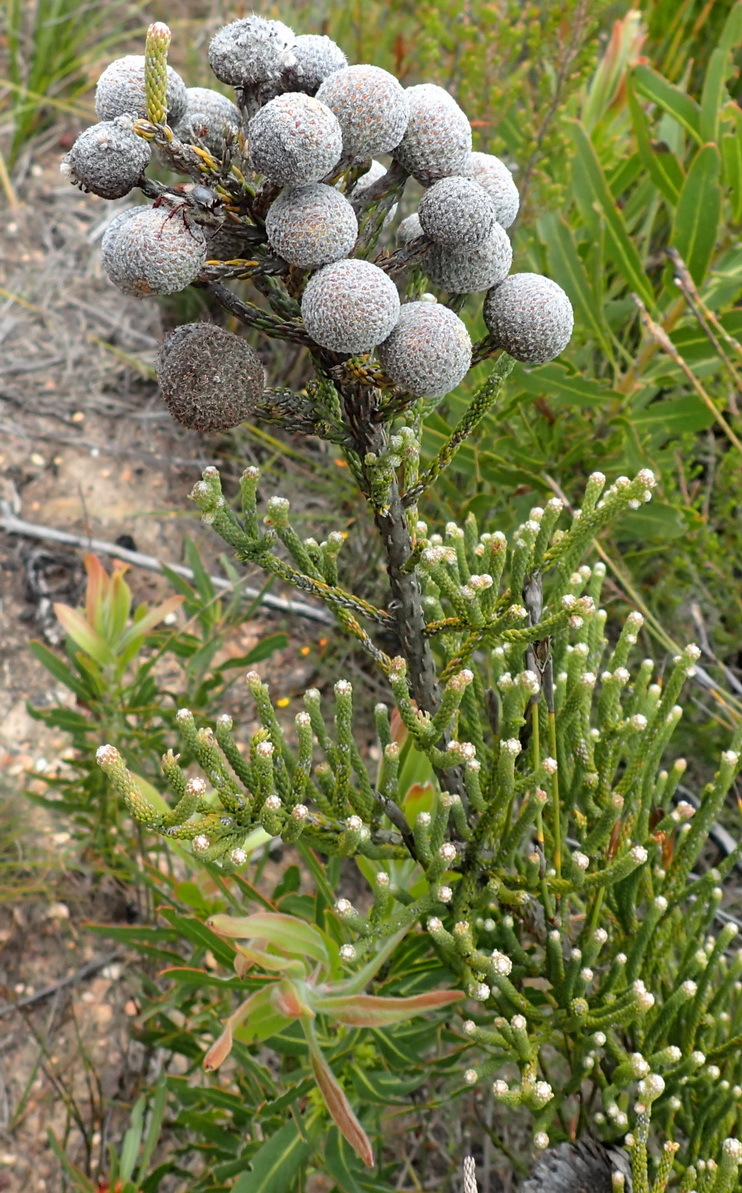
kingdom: Plantae
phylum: Tracheophyta
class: Magnoliopsida
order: Bruniales
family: Bruniaceae
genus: Brunia
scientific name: Brunia noduliflora
